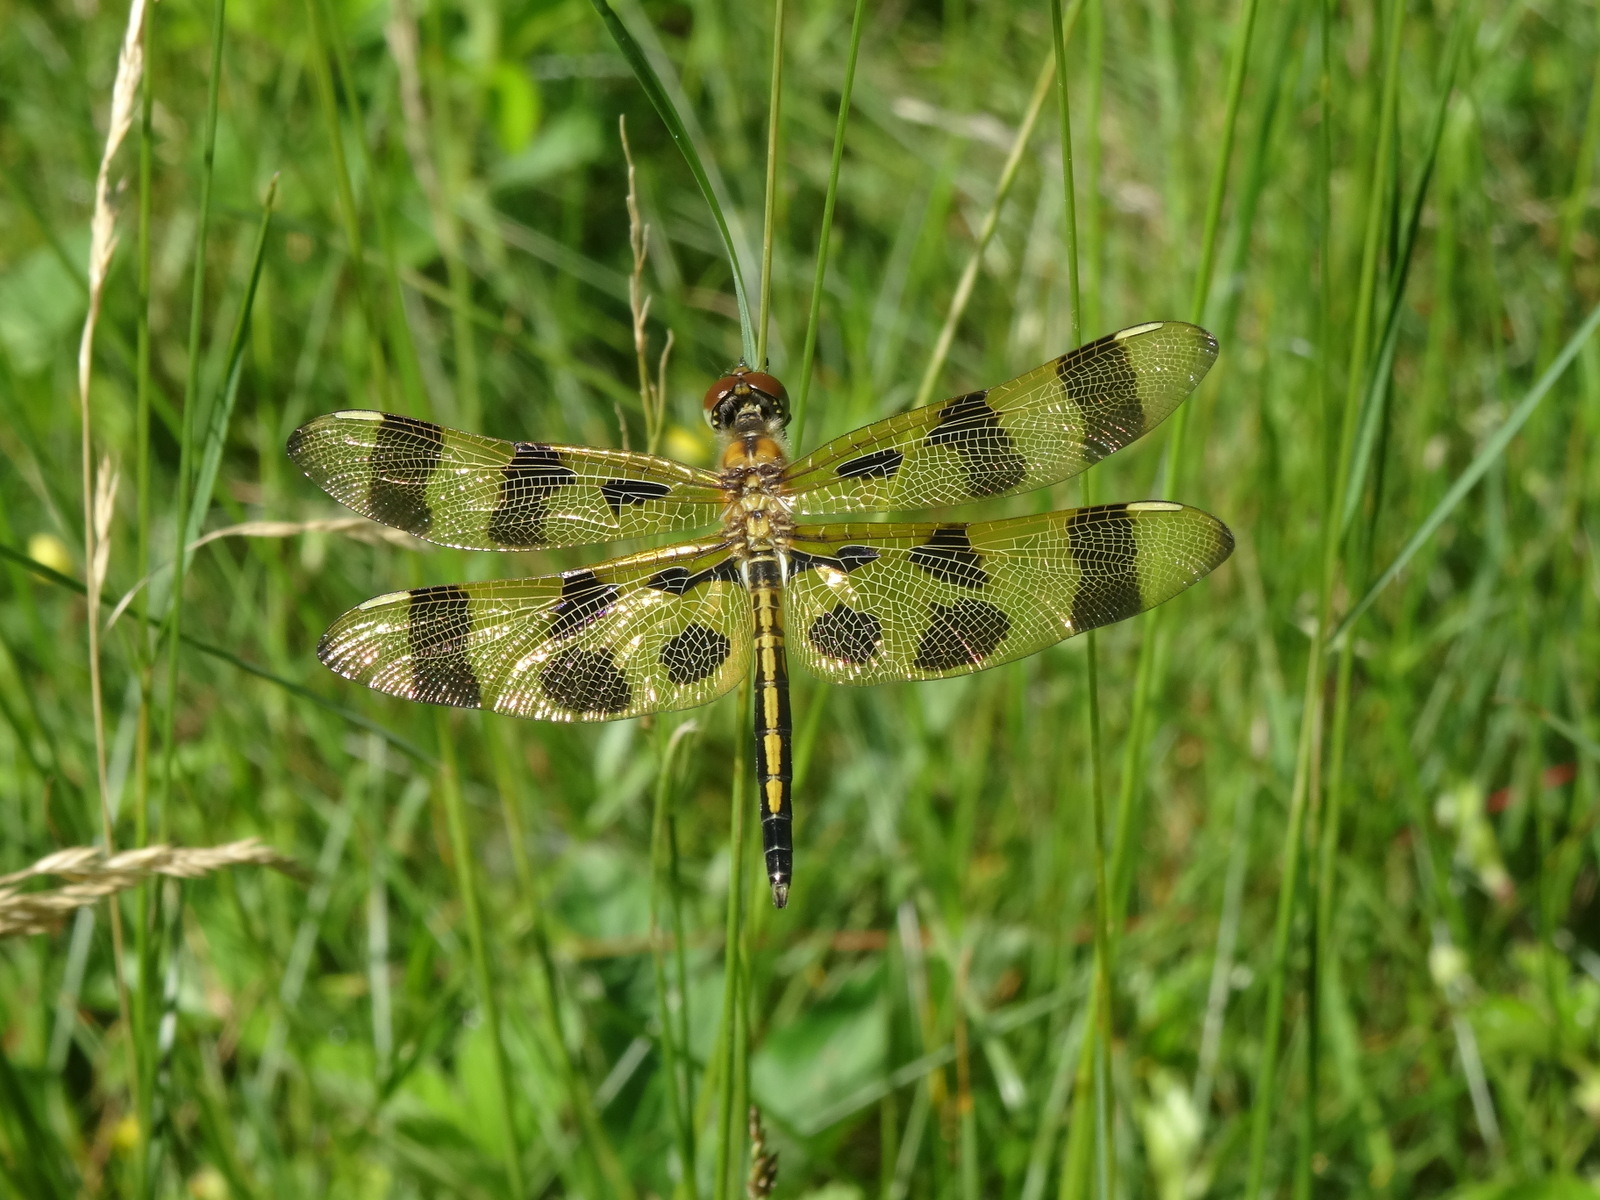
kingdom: Animalia
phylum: Arthropoda
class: Insecta
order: Odonata
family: Libellulidae
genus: Celithemis
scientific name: Celithemis eponina
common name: Halloween pennant
